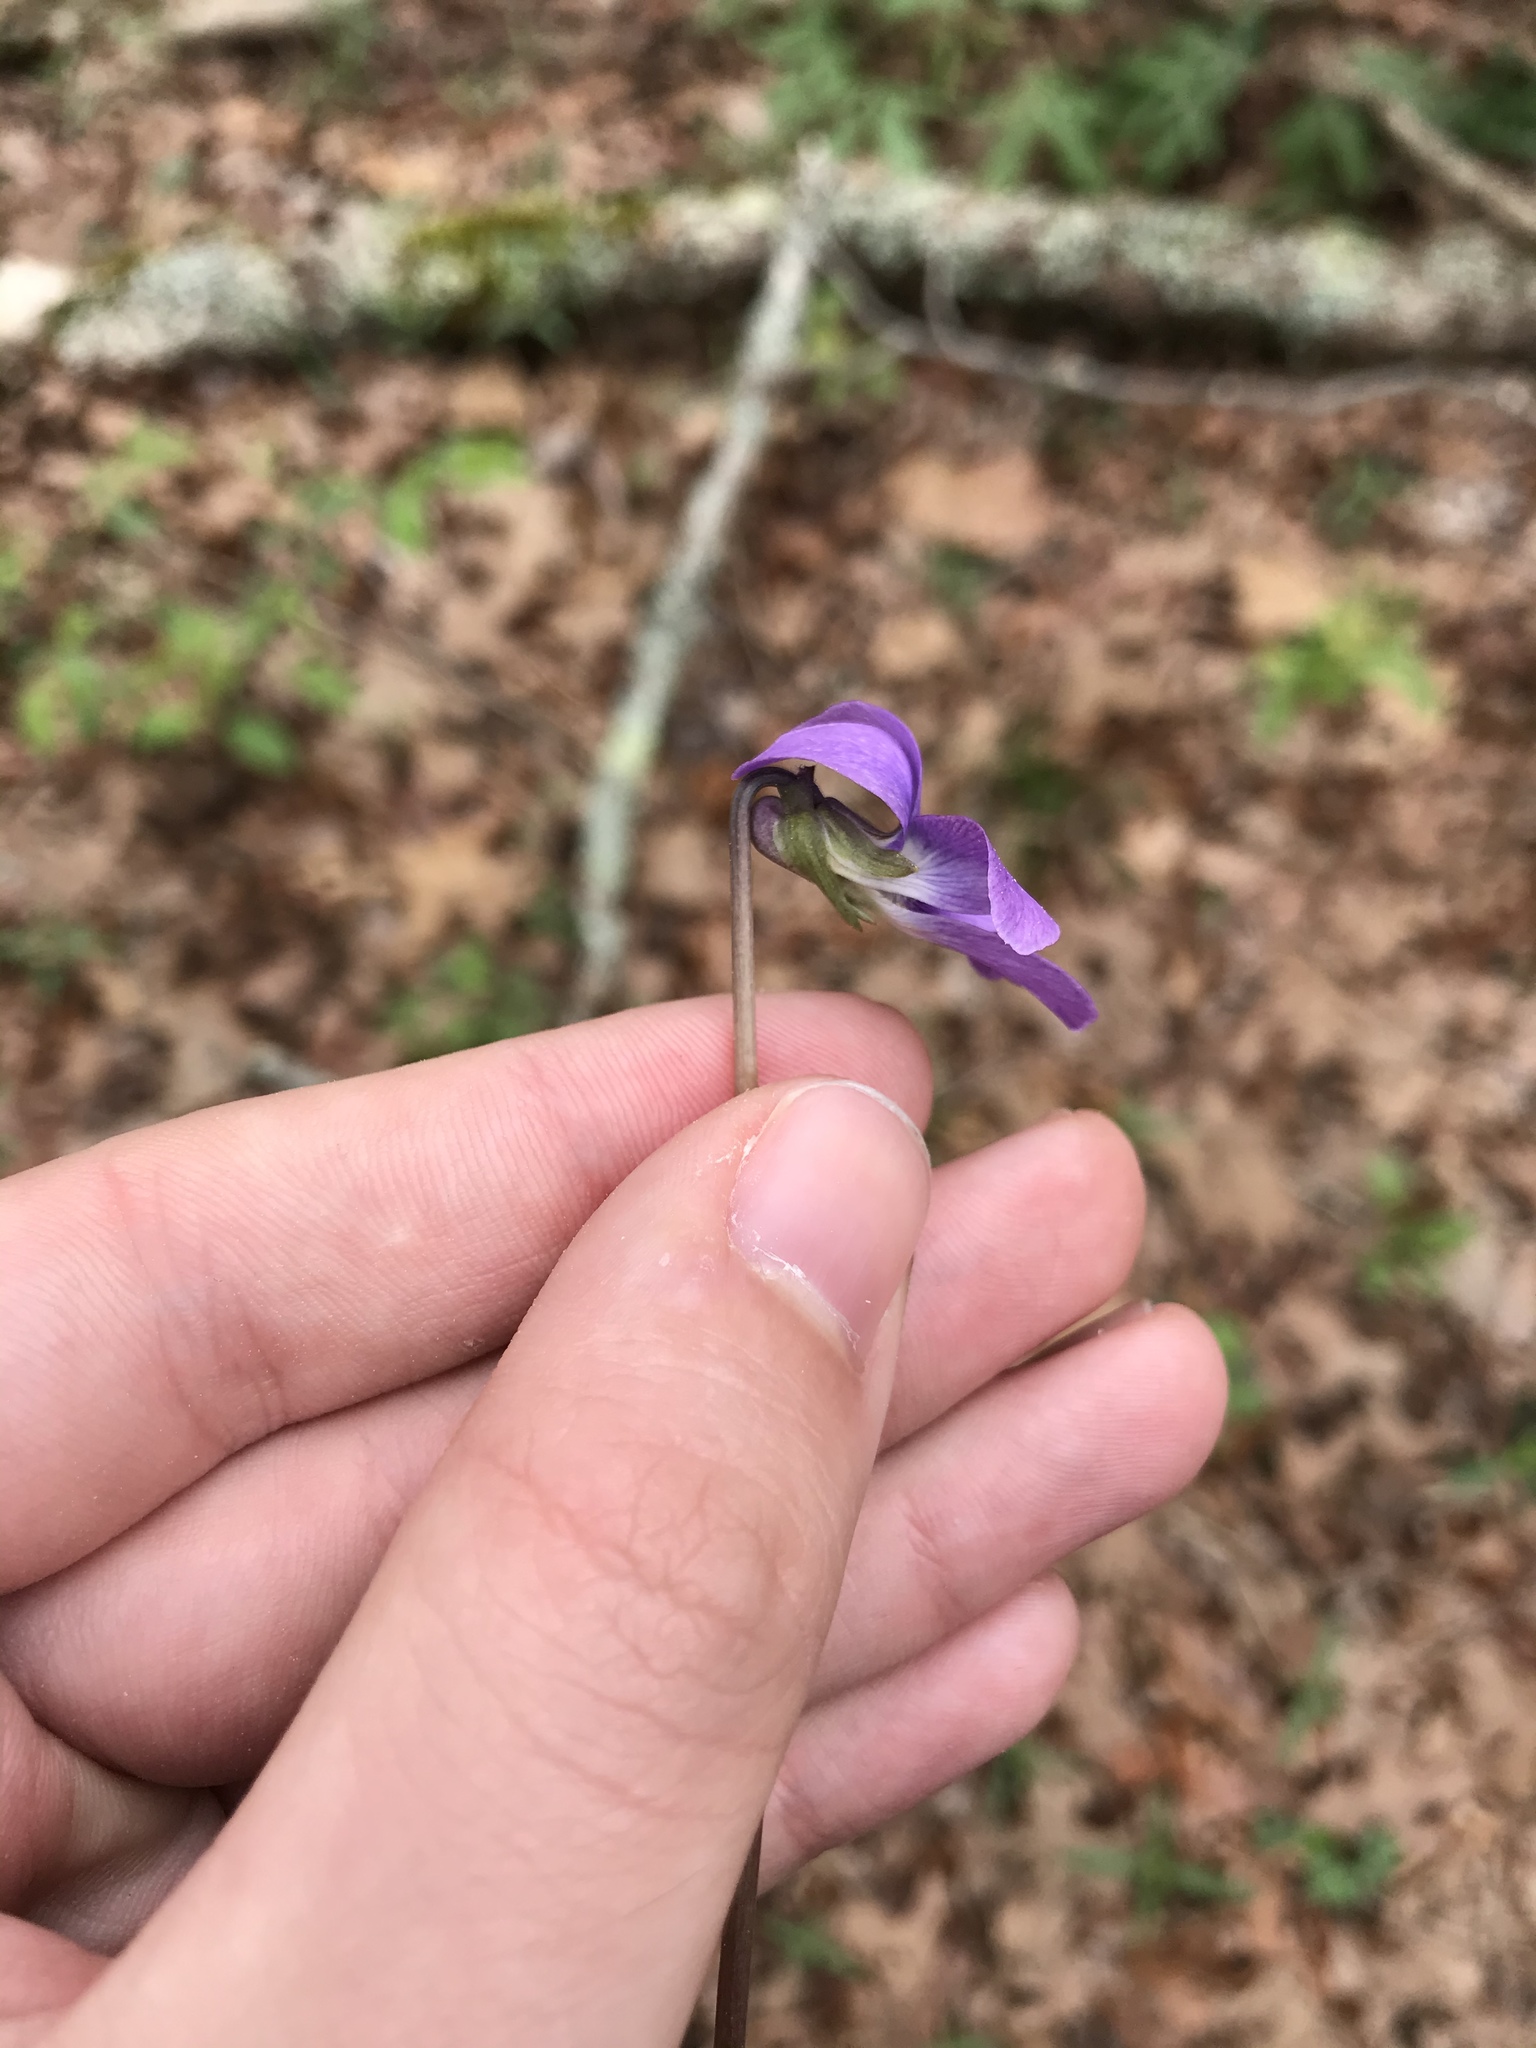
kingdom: Plantae
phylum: Tracheophyta
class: Magnoliopsida
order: Malpighiales
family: Violaceae
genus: Viola
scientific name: Viola palmata
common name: Early blue violet
